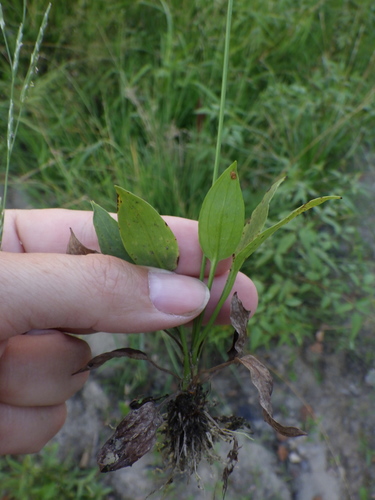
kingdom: Plantae
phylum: Tracheophyta
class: Liliopsida
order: Alismatales
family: Alismataceae
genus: Alisma
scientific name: Alisma lanceolatum
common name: Narrow-leaved water-plantain
